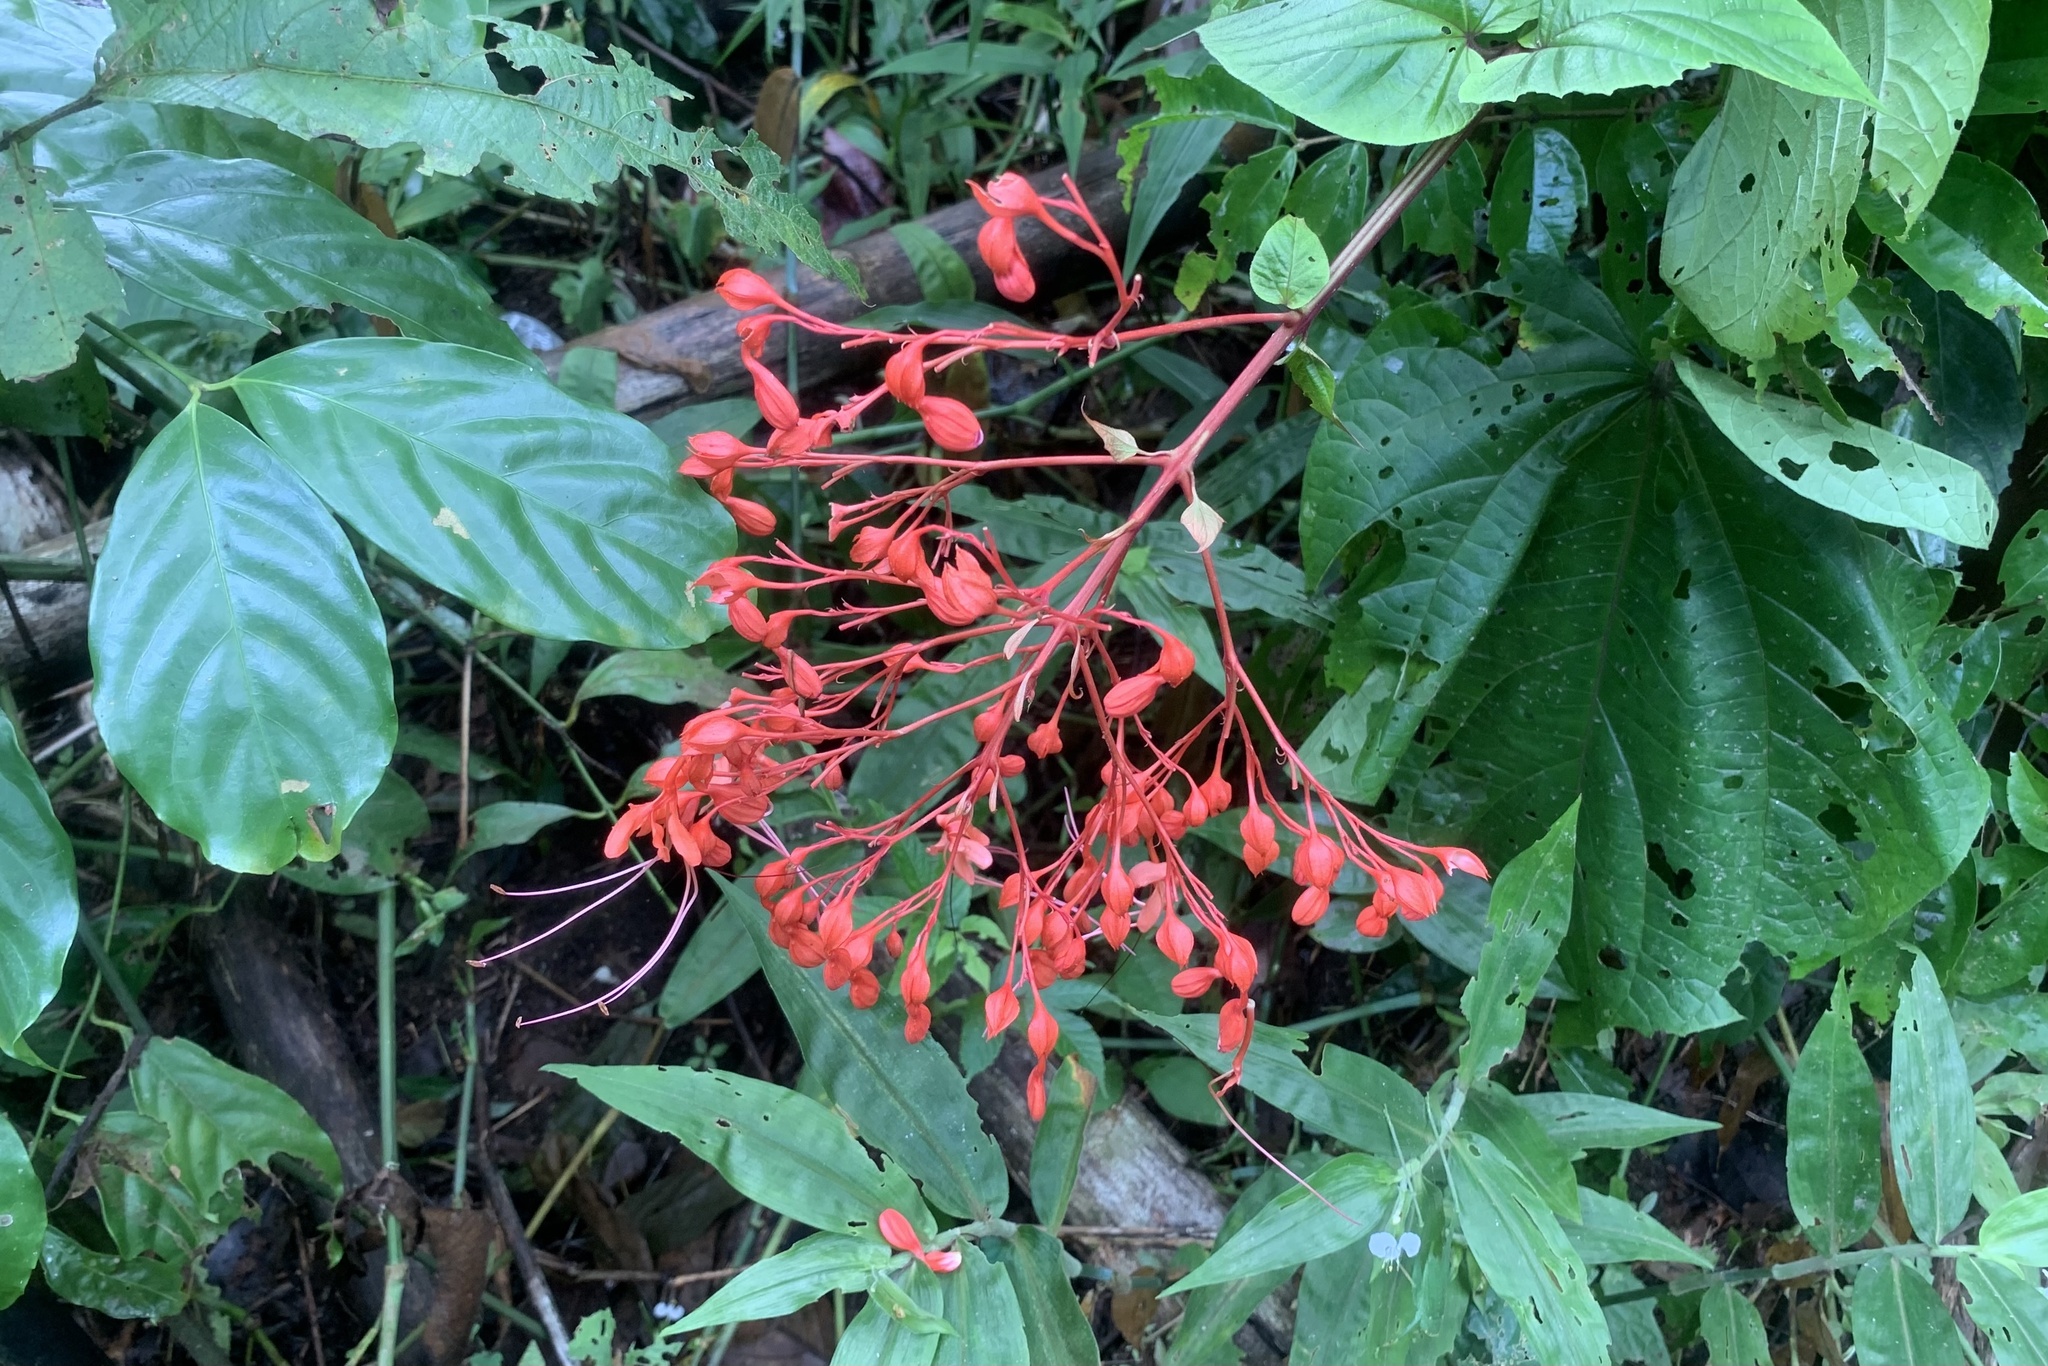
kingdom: Plantae
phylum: Tracheophyta
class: Magnoliopsida
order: Lamiales
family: Lamiaceae
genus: Clerodendrum
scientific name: Clerodendrum japonicum
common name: Japanese glorybower
